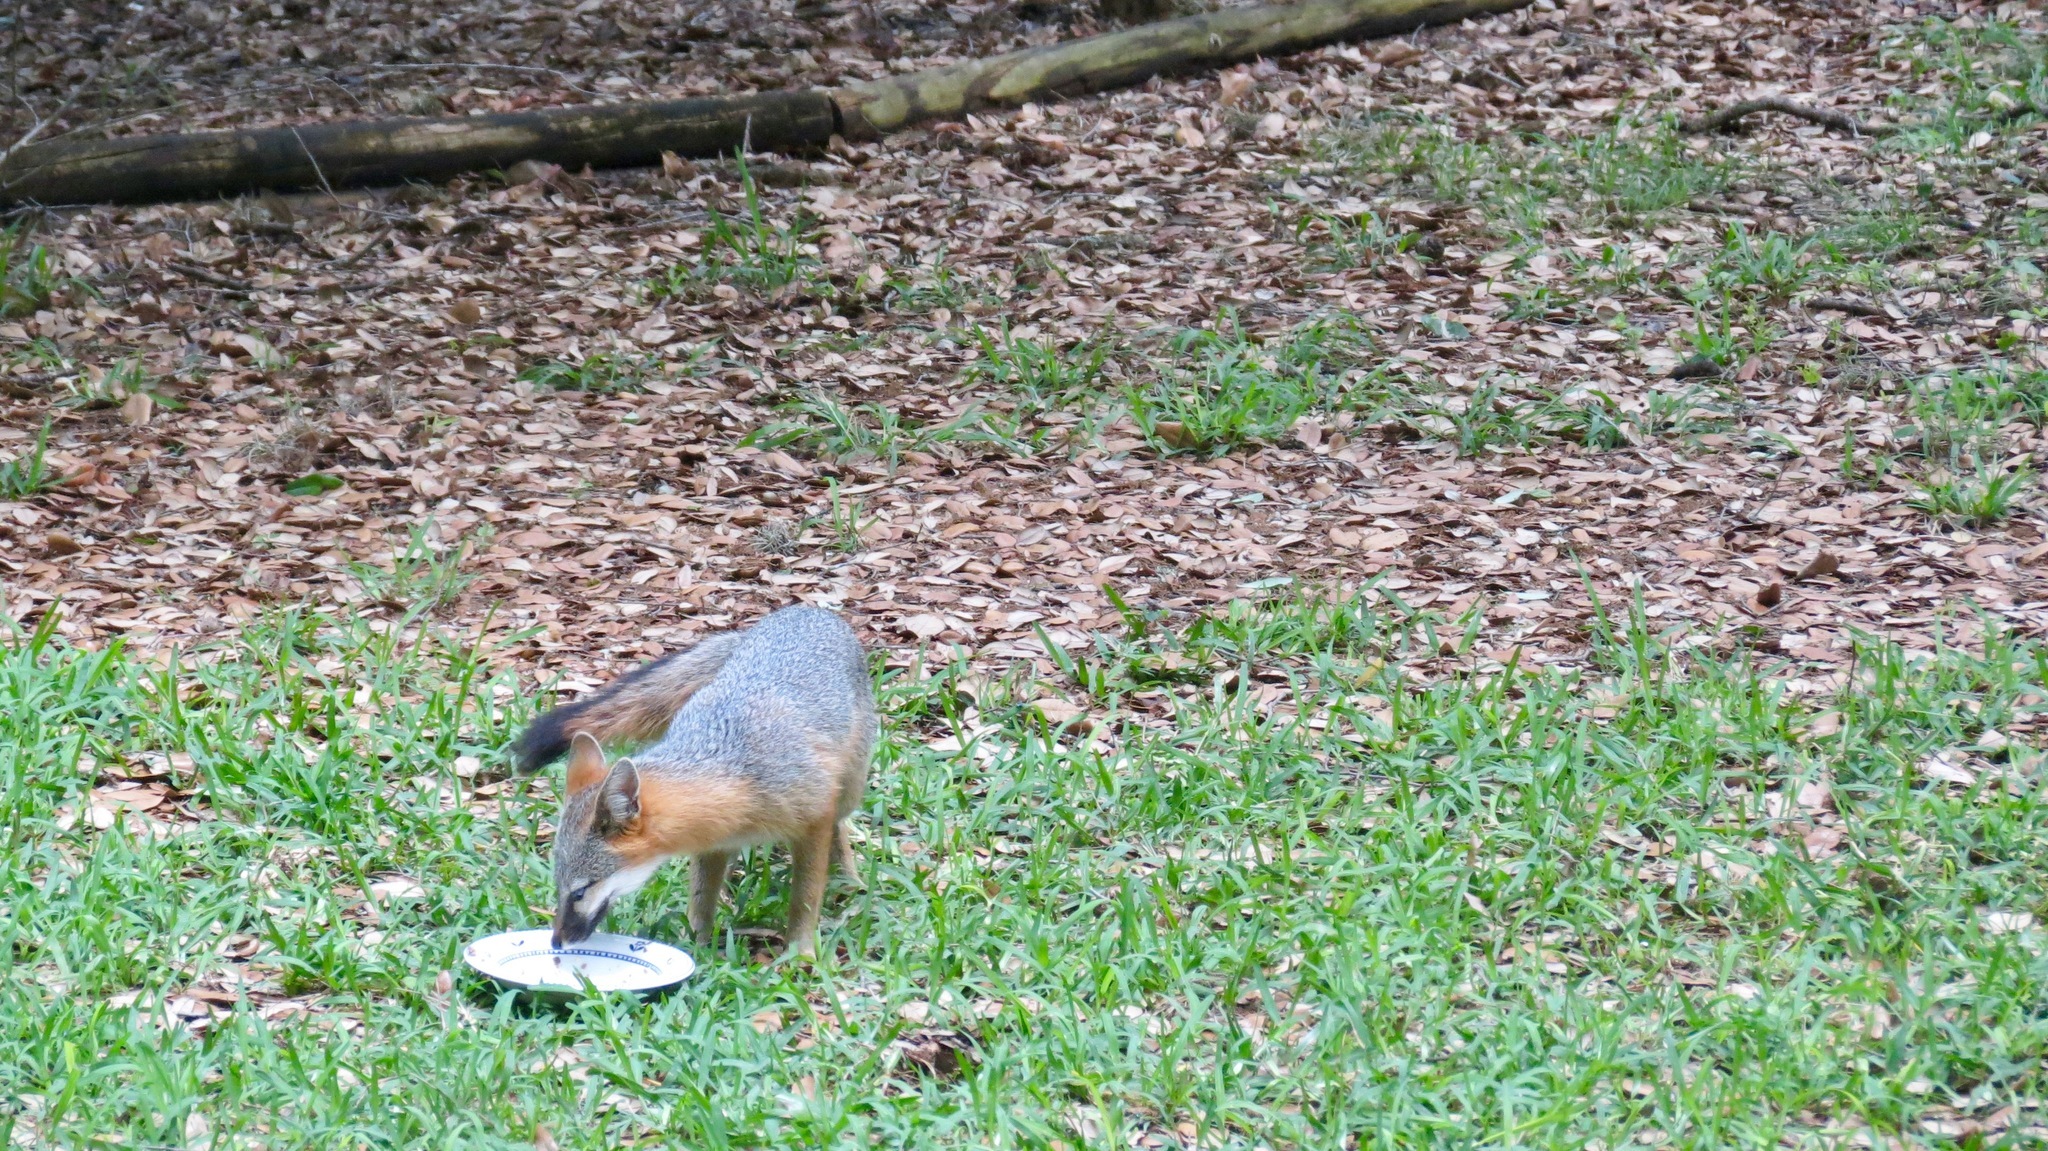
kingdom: Animalia
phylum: Chordata
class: Mammalia
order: Carnivora
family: Canidae
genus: Urocyon
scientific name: Urocyon cinereoargenteus
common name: Gray fox
